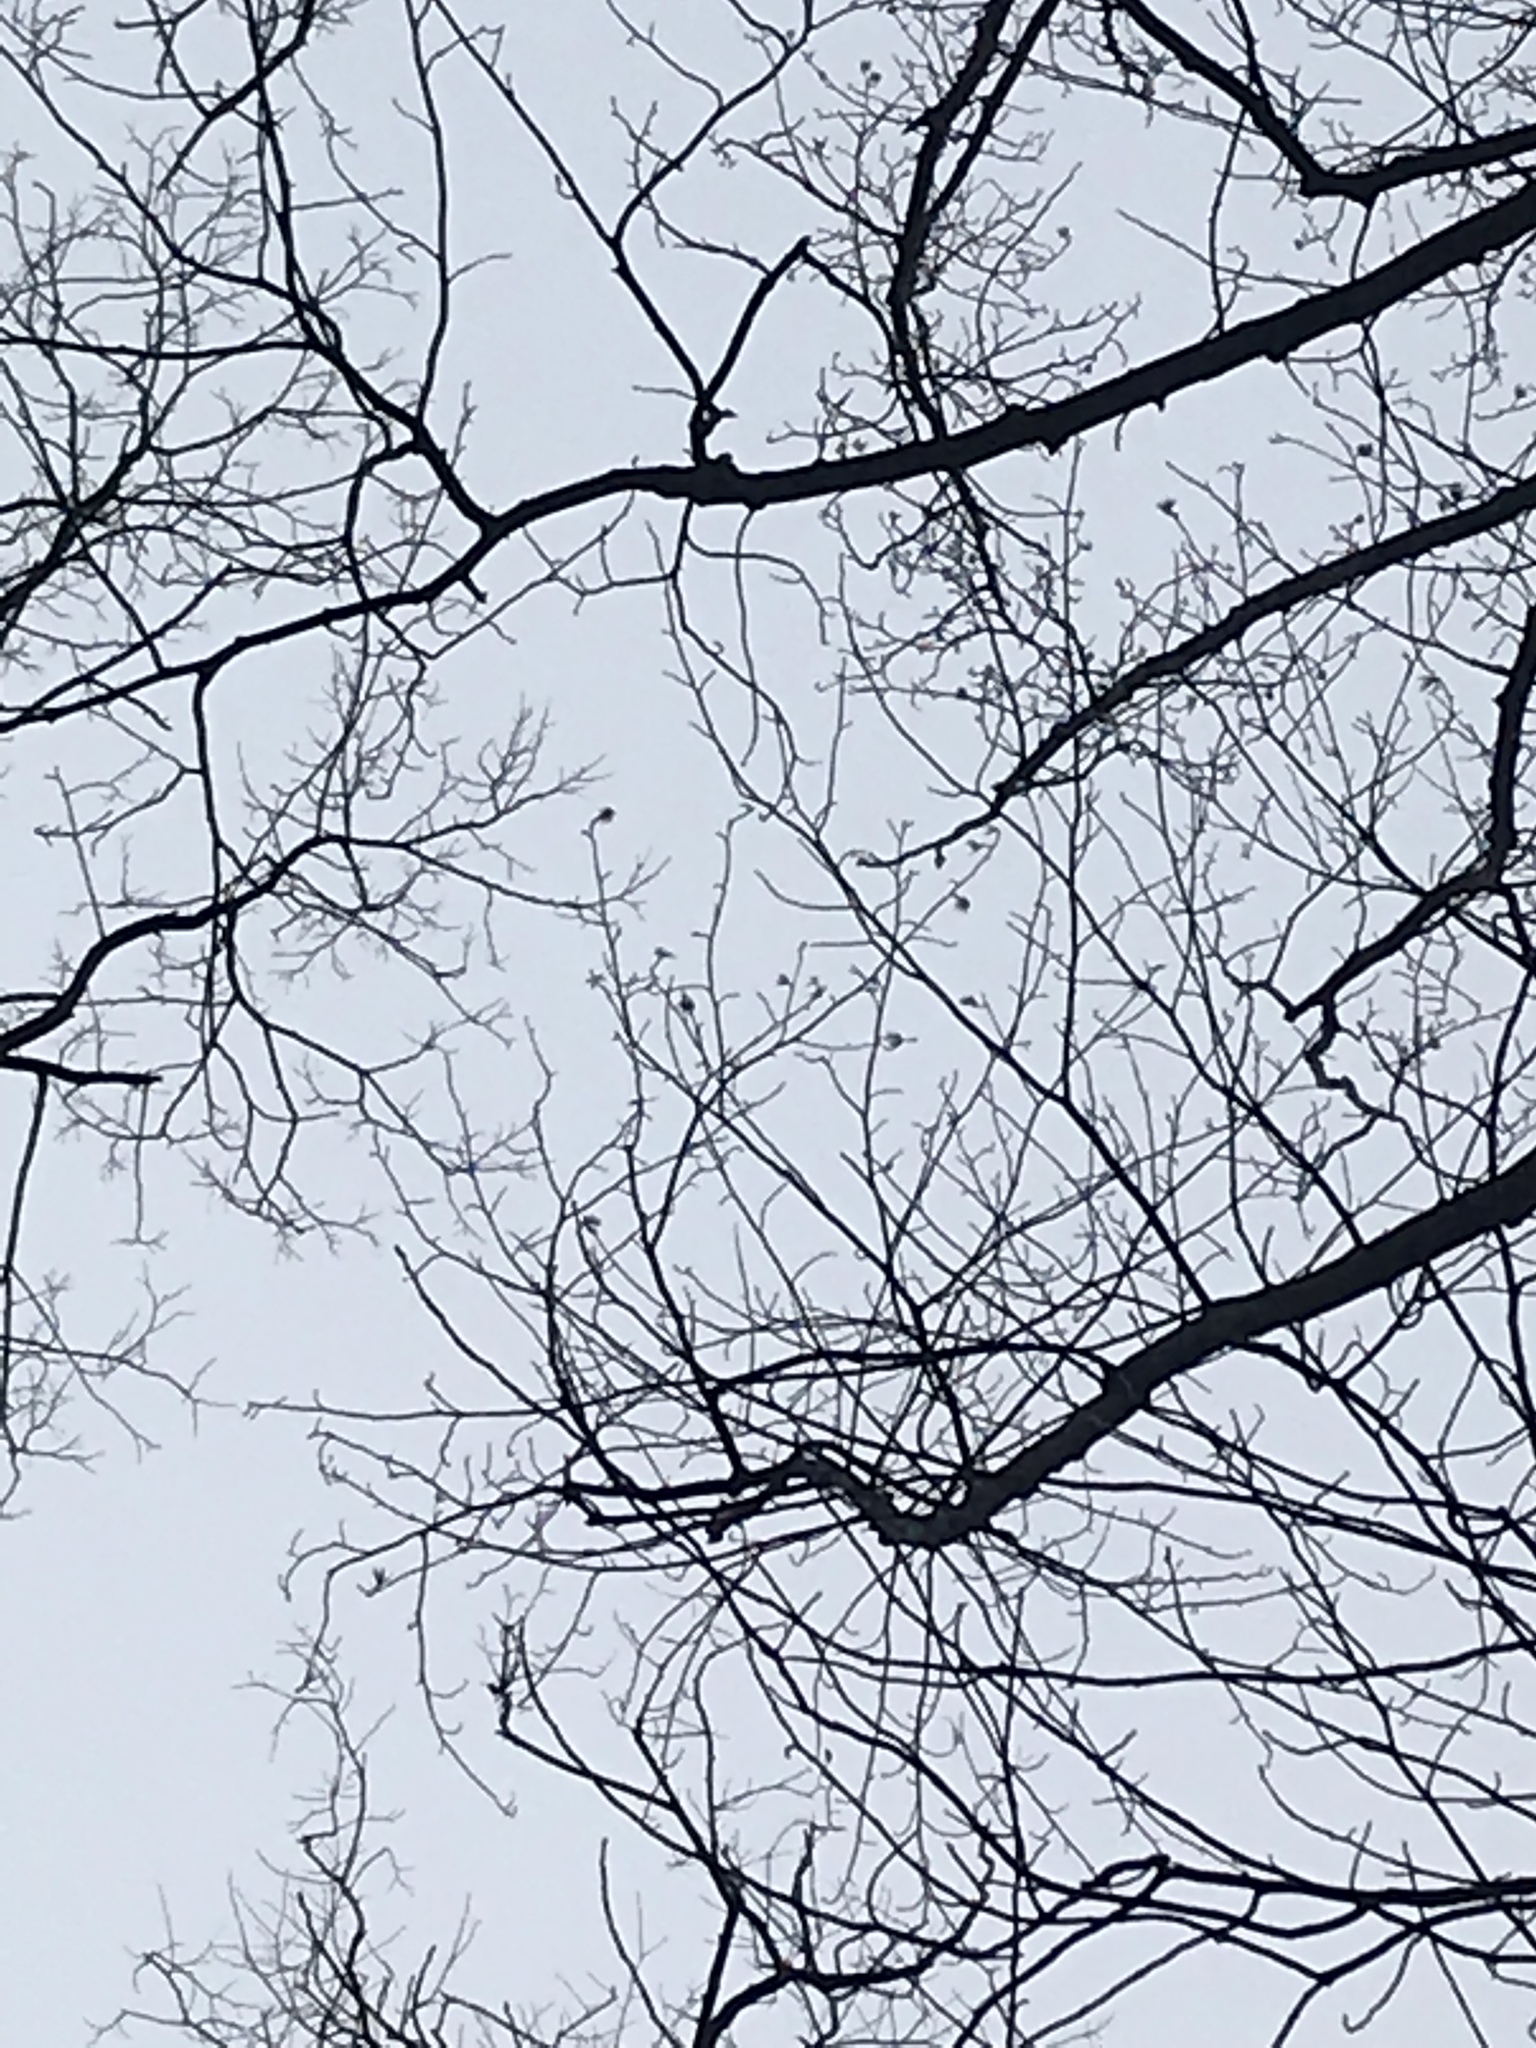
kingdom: Plantae
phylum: Tracheophyta
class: Magnoliopsida
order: Magnoliales
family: Magnoliaceae
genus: Liriodendron
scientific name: Liriodendron tulipifera
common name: Tulip tree
